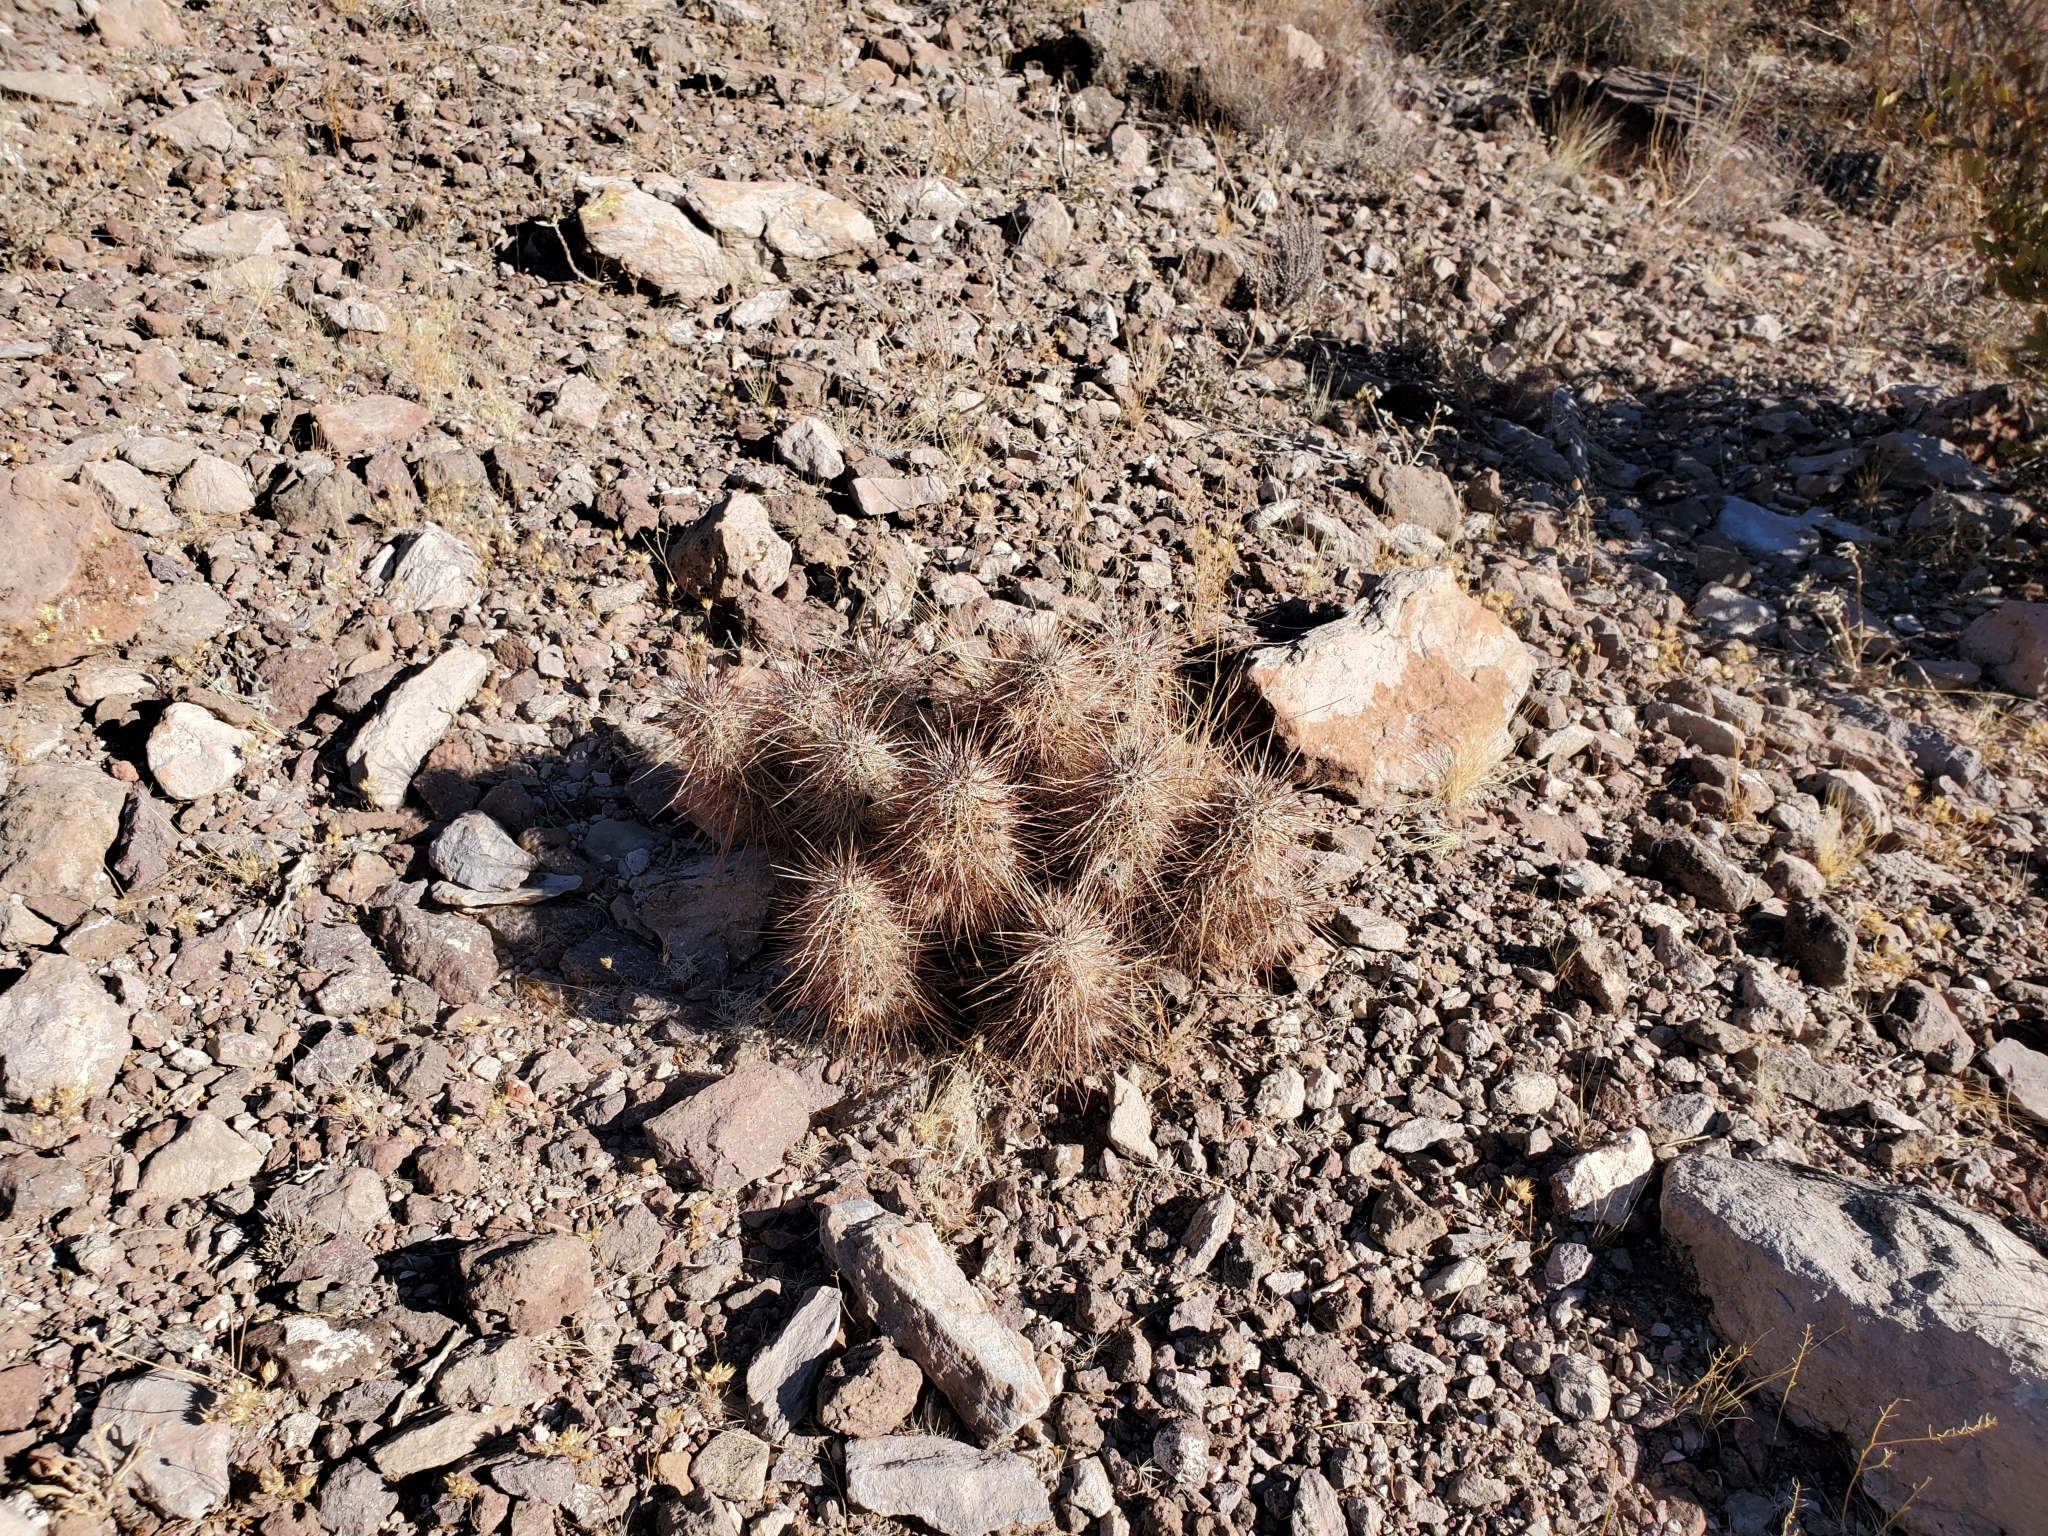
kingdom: Plantae
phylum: Tracheophyta
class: Magnoliopsida
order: Caryophyllales
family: Cactaceae
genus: Echinocereus
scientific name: Echinocereus engelmannii
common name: Engelmann's hedgehog cactus
